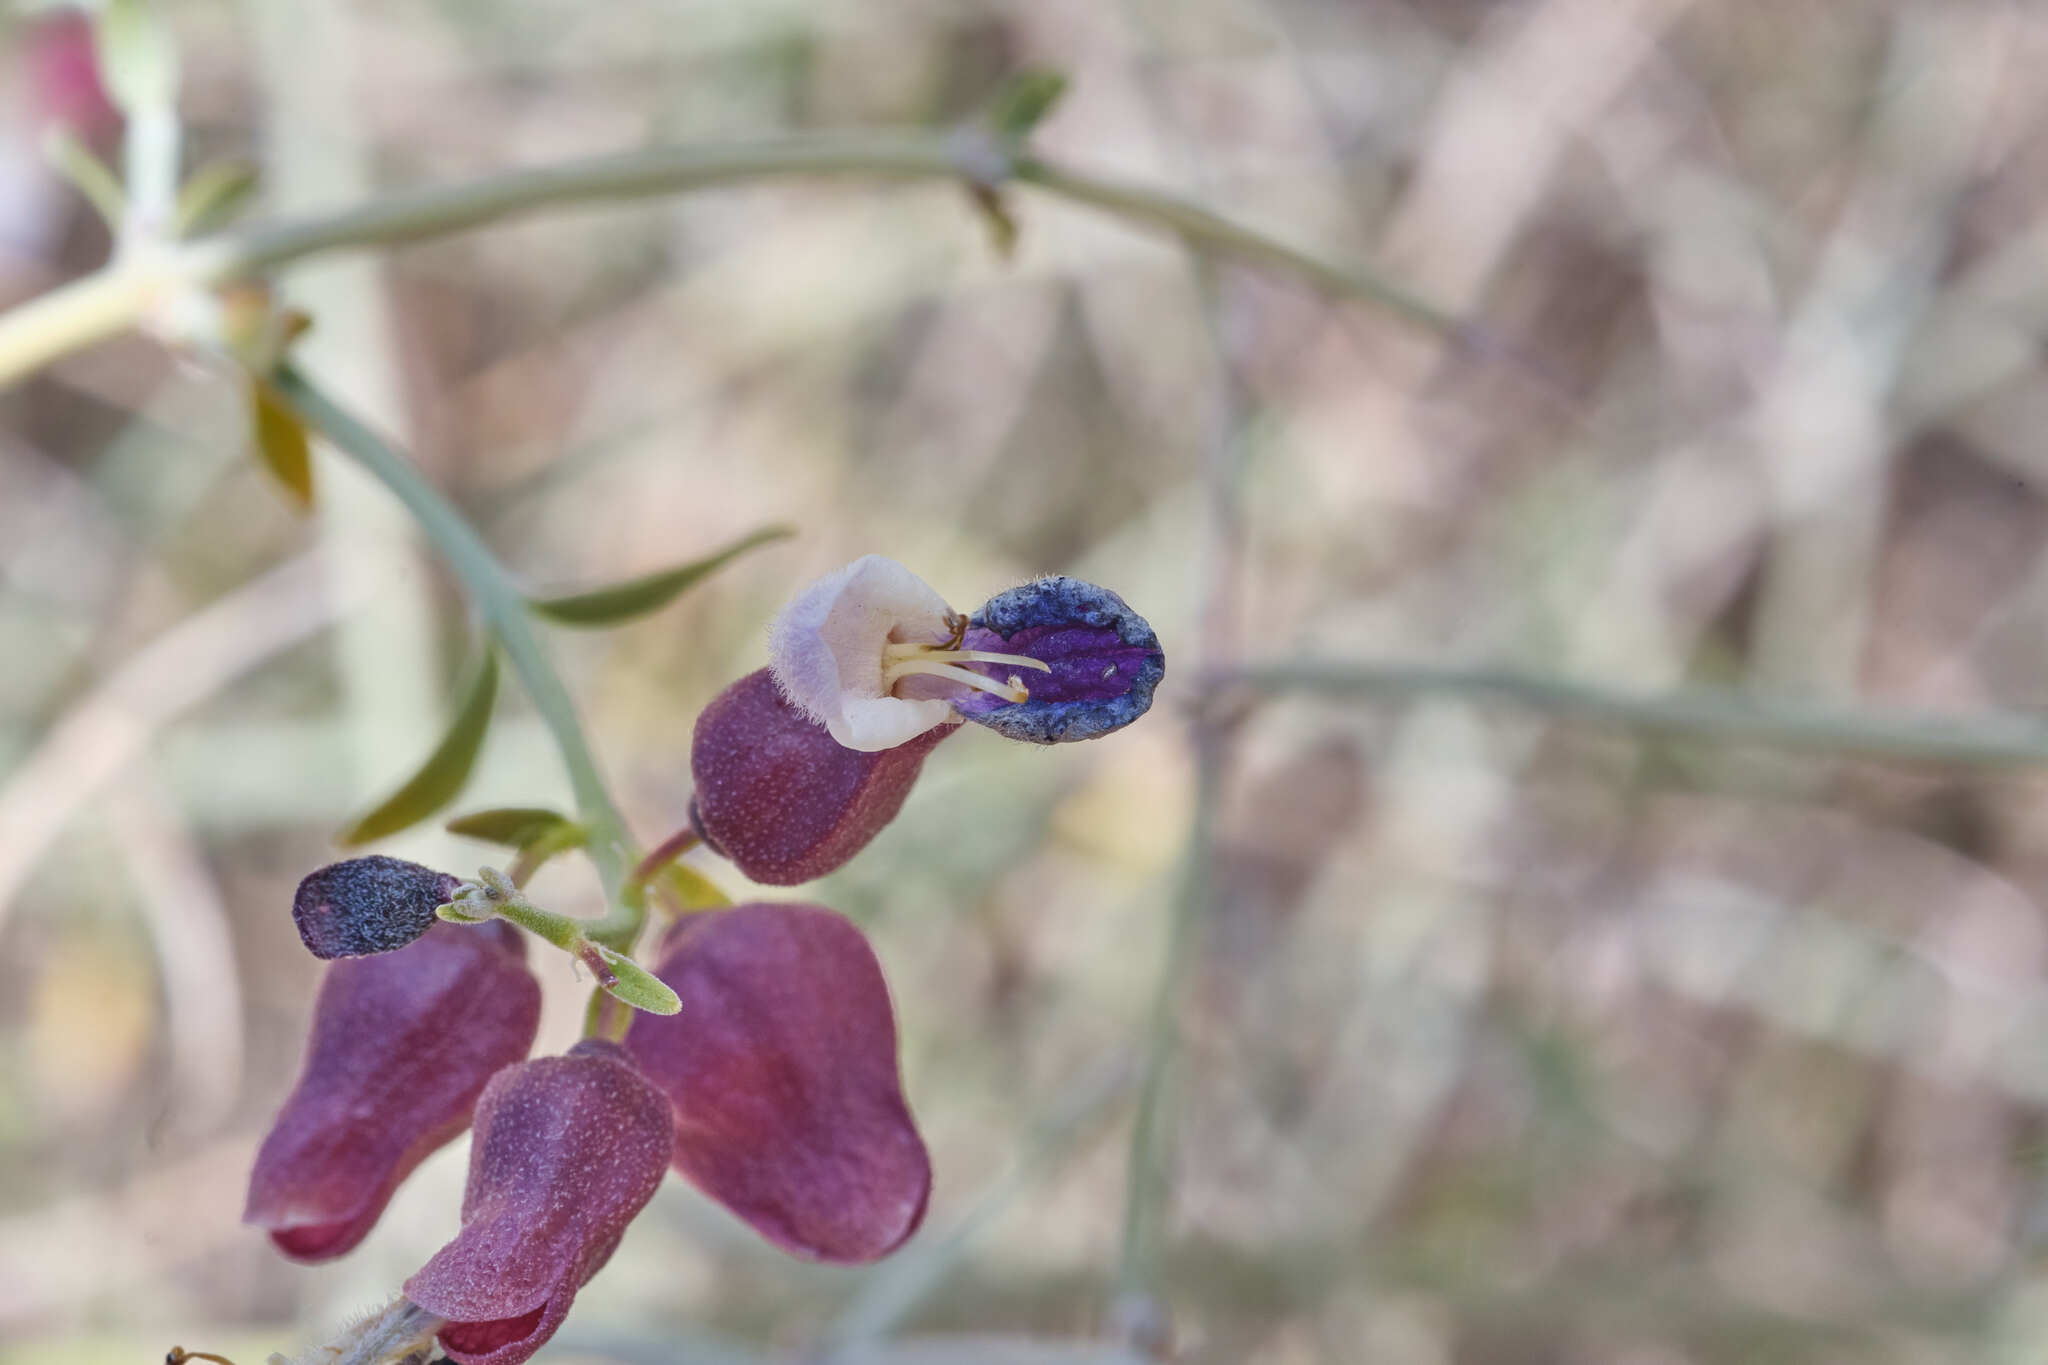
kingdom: Plantae
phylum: Tracheophyta
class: Magnoliopsida
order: Lamiales
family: Lamiaceae
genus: Scutellaria
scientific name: Scutellaria mexicana
